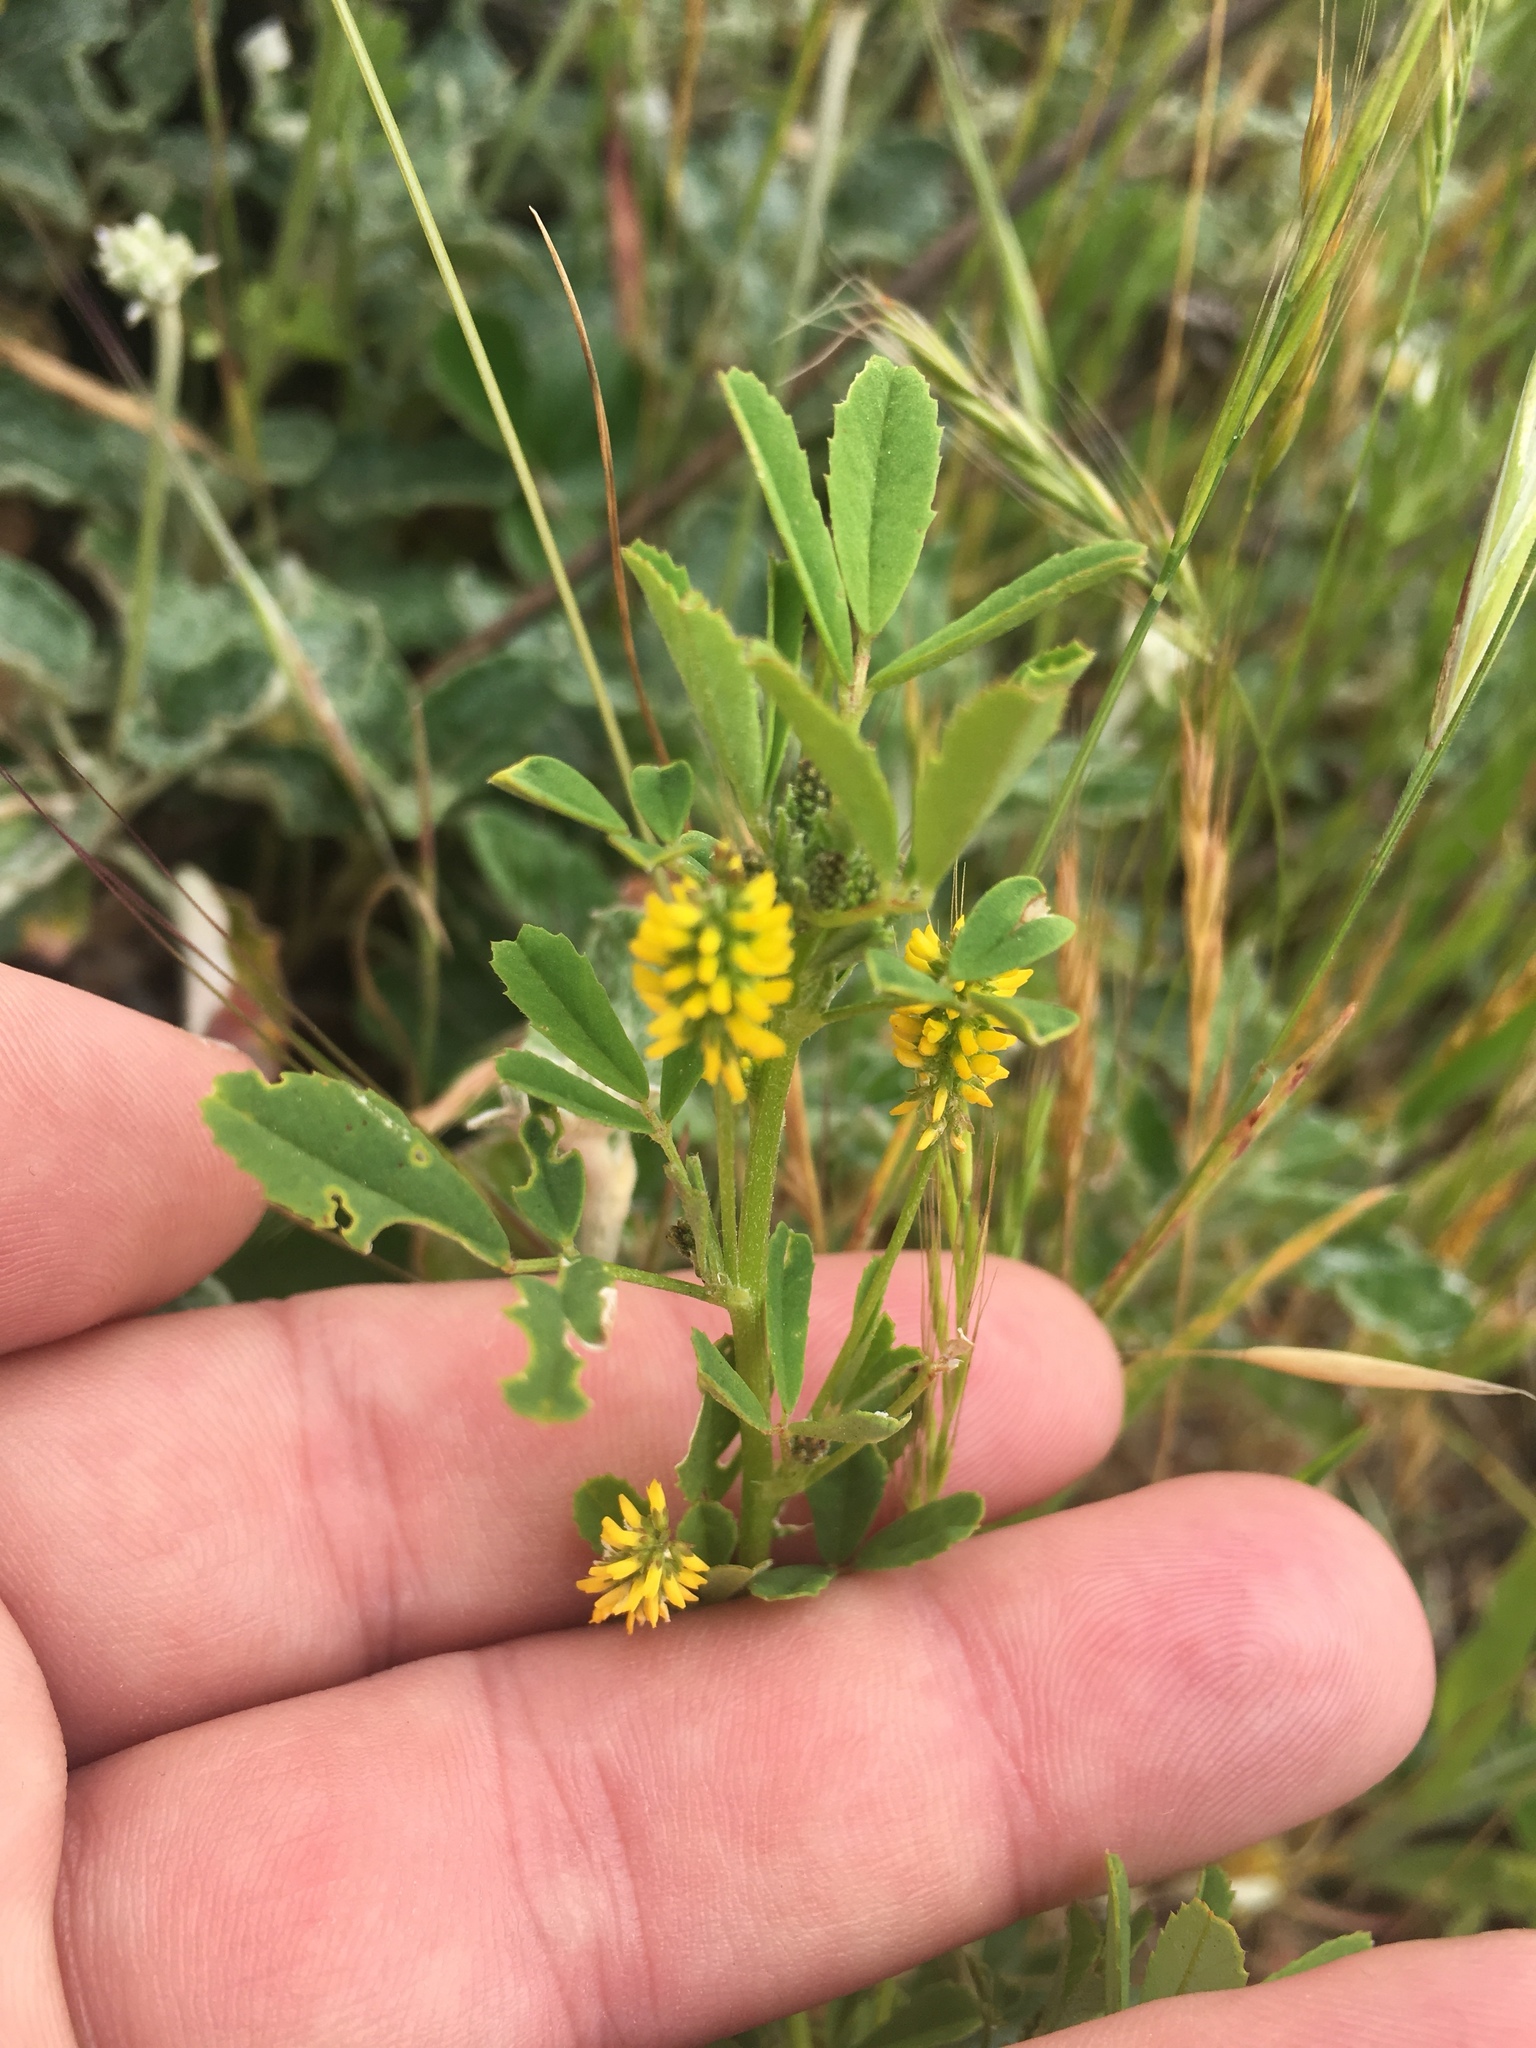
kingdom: Plantae
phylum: Tracheophyta
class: Magnoliopsida
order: Fabales
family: Fabaceae
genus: Melilotus
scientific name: Melilotus indicus
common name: Small melilot
